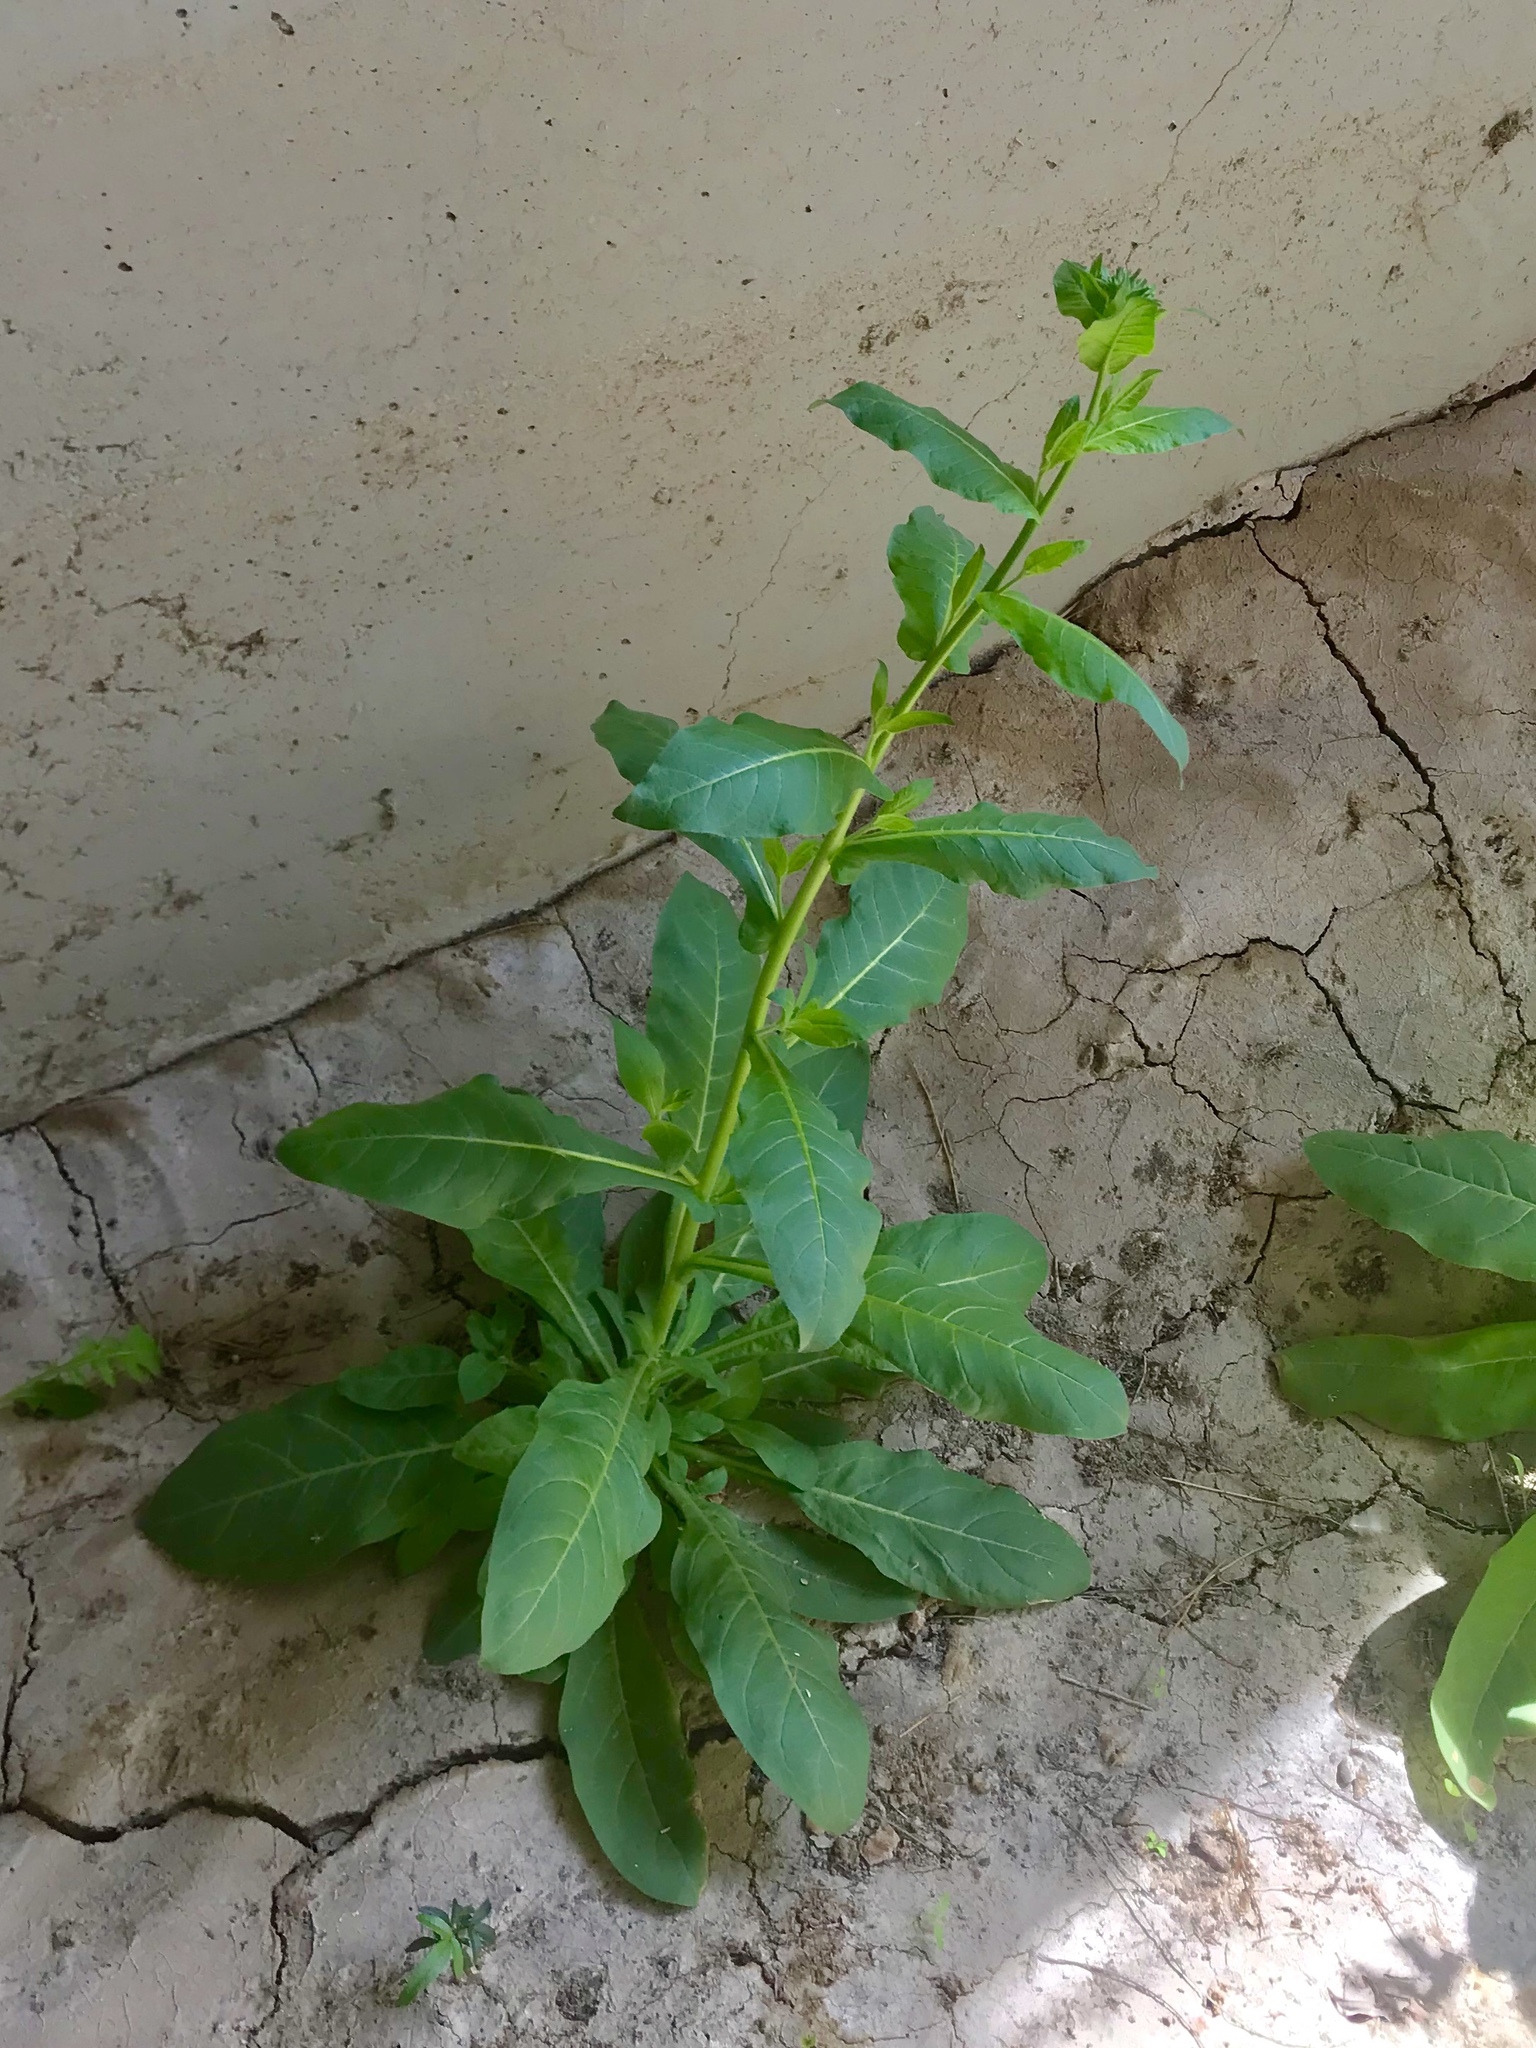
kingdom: Plantae
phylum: Tracheophyta
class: Magnoliopsida
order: Solanales
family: Solanaceae
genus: Nicotiana
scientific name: Nicotiana obtusifolia
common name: Desert tobacco
